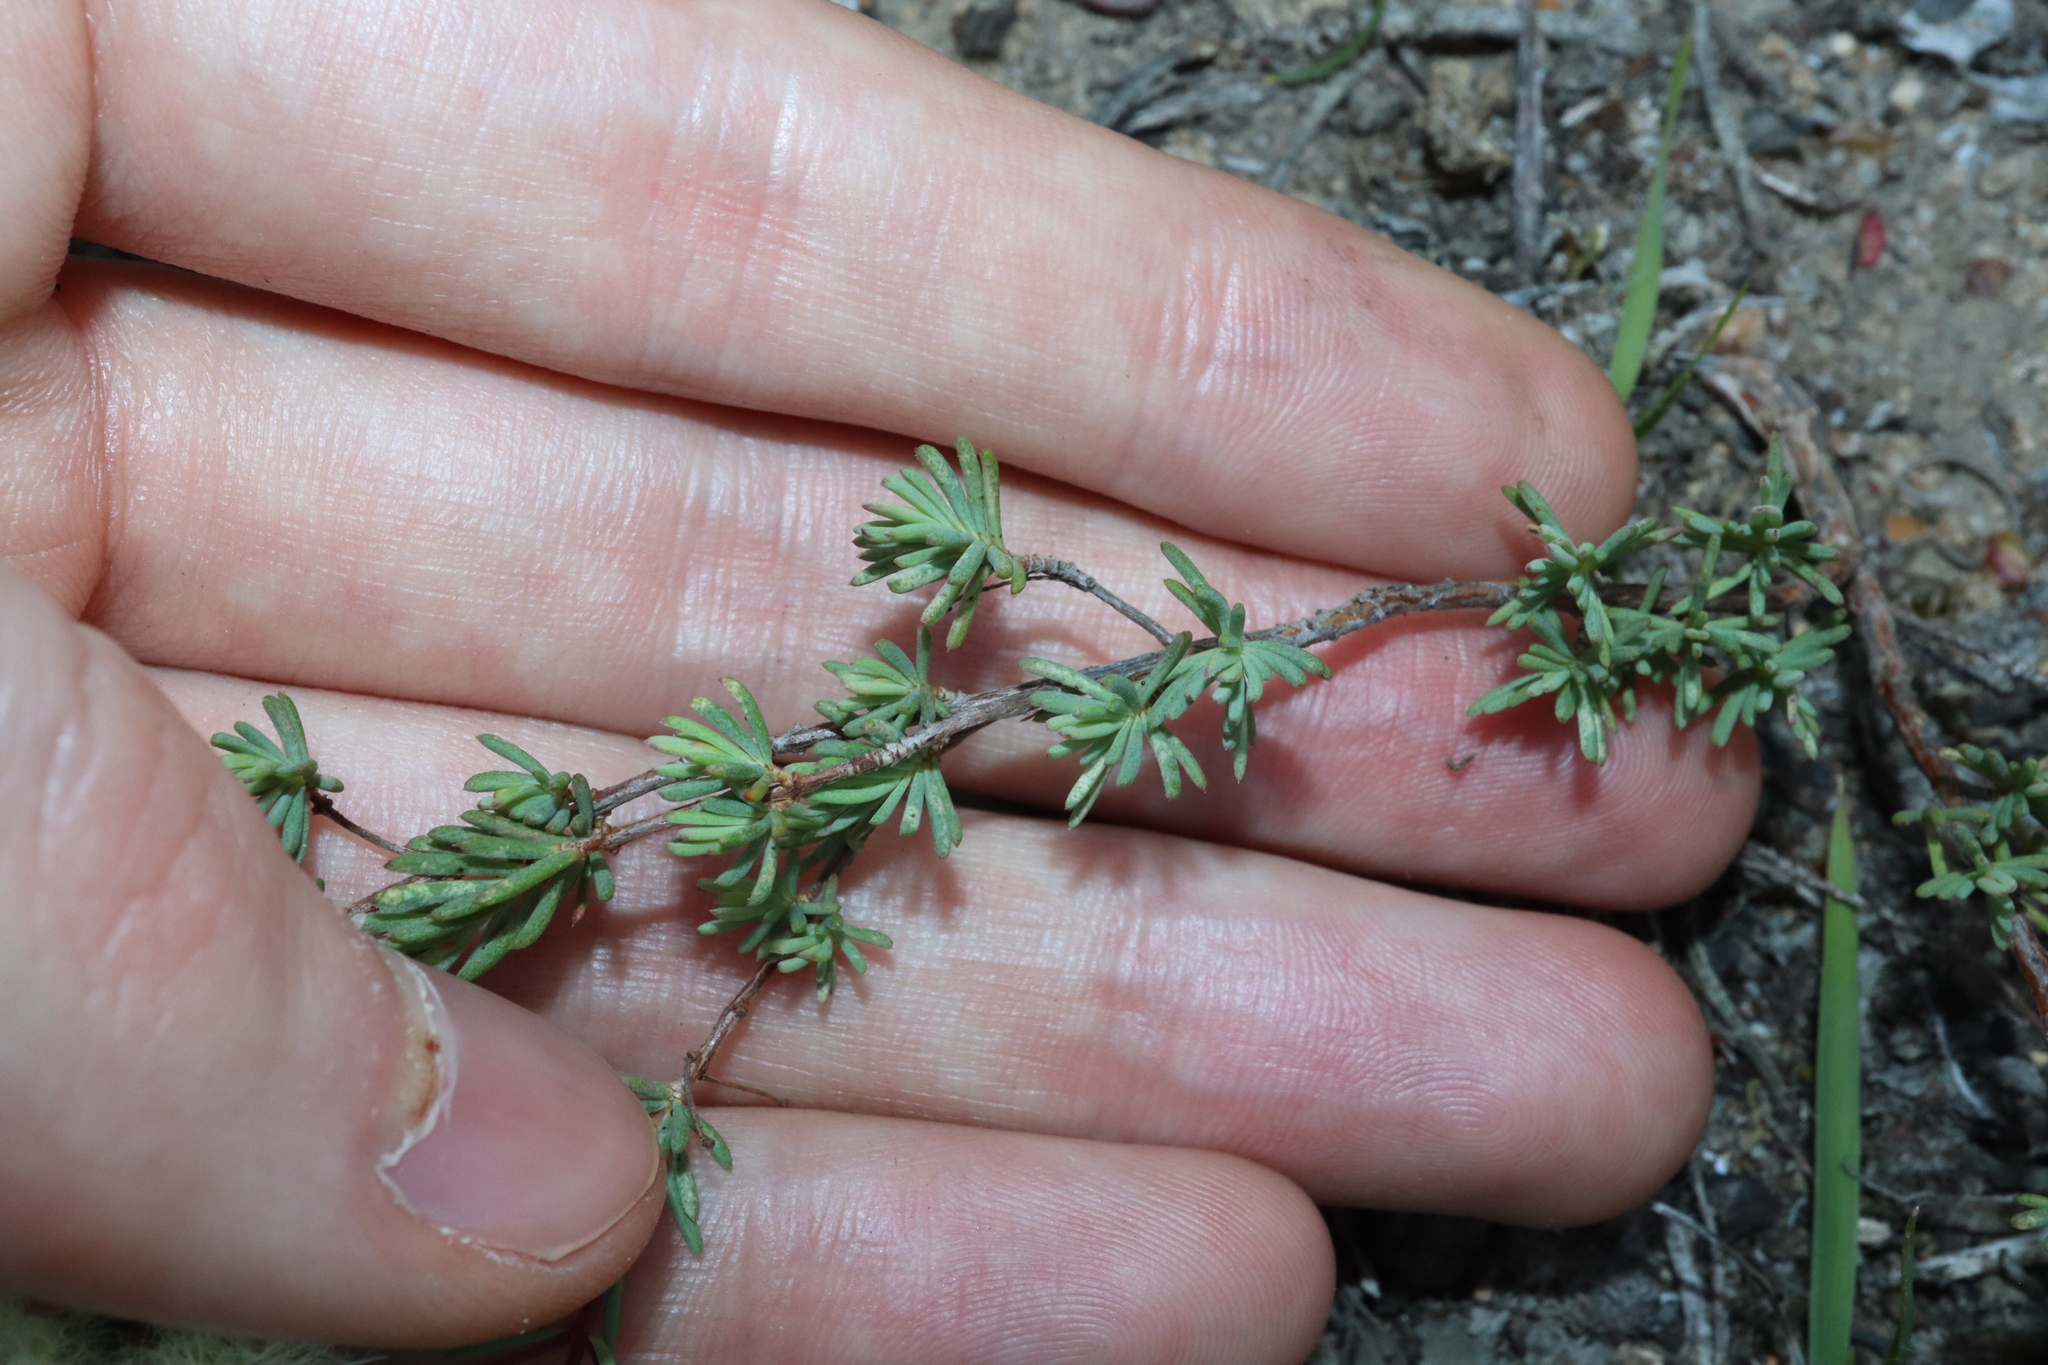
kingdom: Plantae
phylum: Tracheophyta
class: Magnoliopsida
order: Myrtales
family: Myrtaceae
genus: Verticordia
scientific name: Verticordia huegelii
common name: Variegate feather-flower
